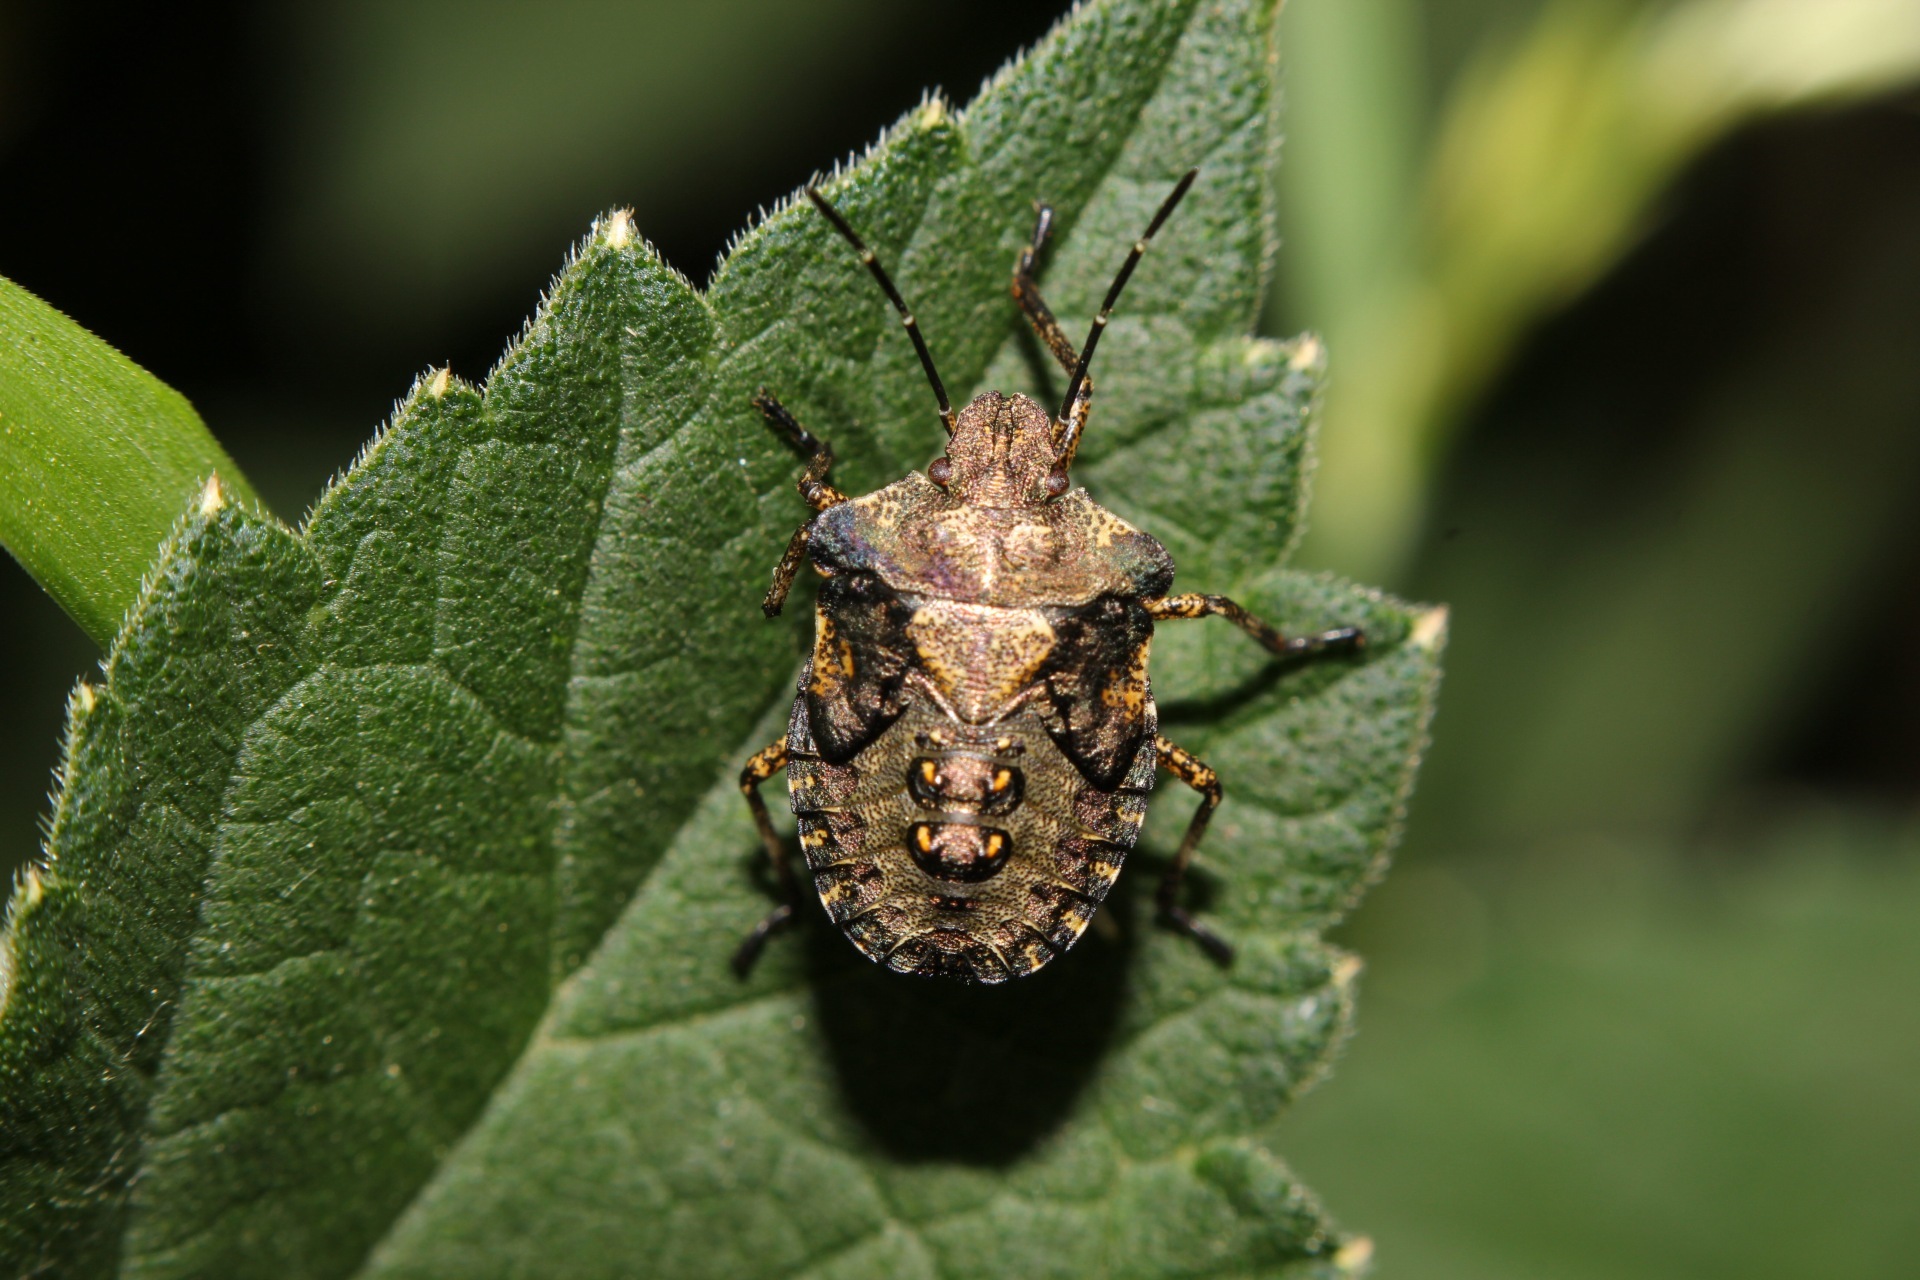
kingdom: Animalia
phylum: Arthropoda
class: Insecta
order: Hemiptera
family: Pentatomidae
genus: Pentatoma
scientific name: Pentatoma rufipes
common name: Forest bug
